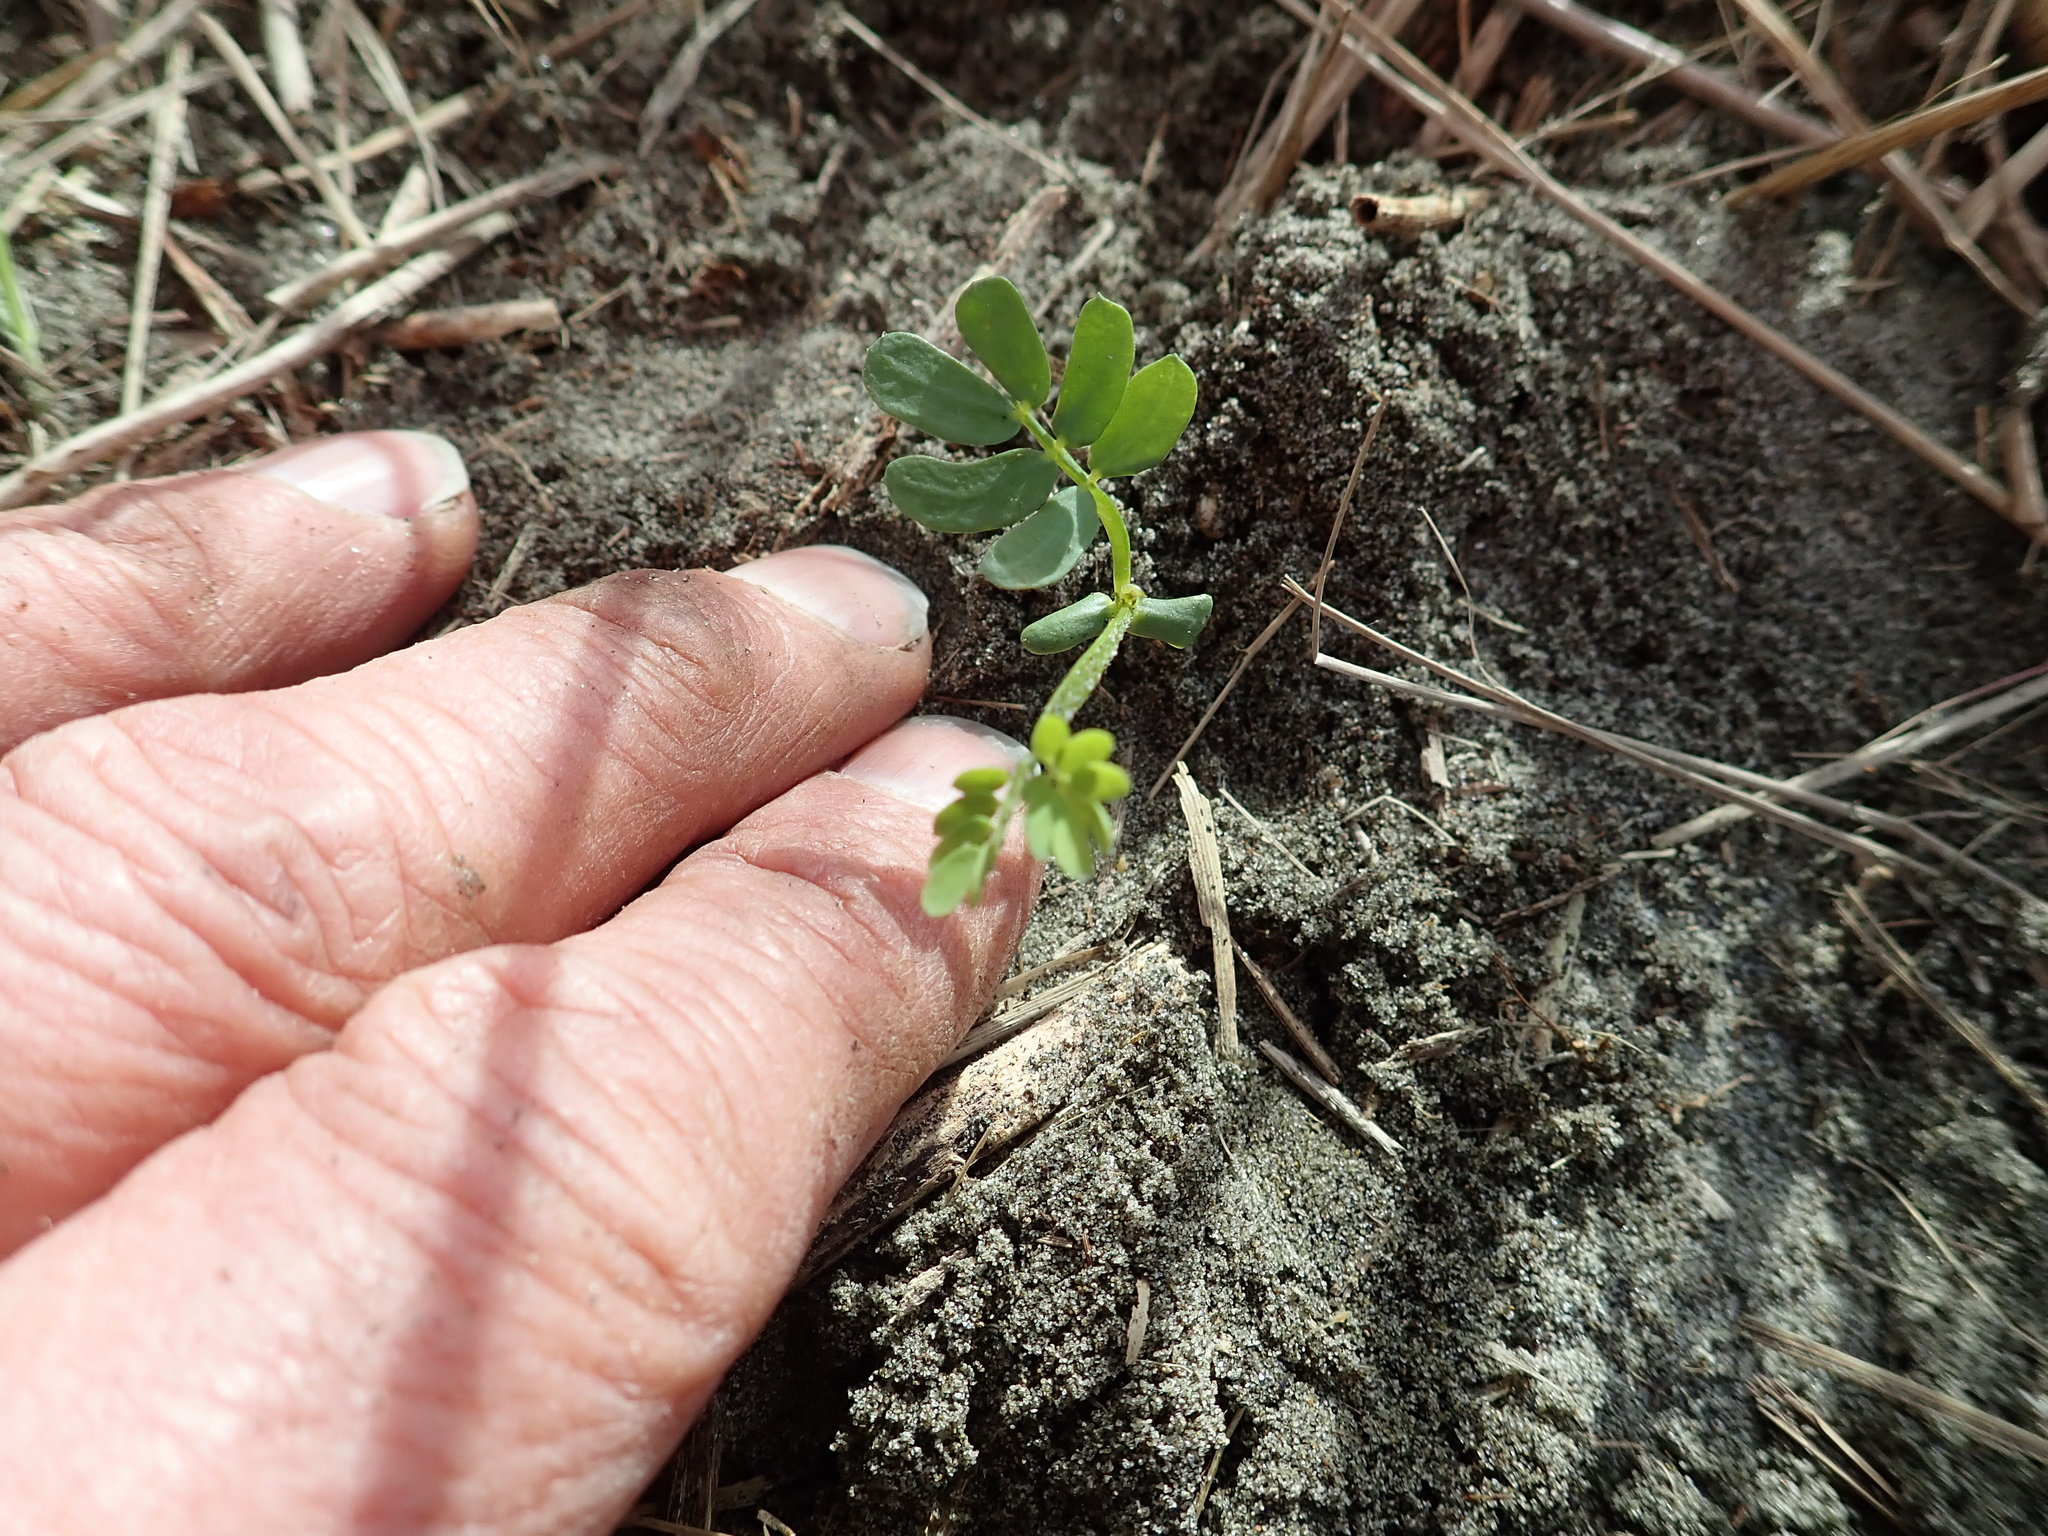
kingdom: Plantae
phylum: Tracheophyta
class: Magnoliopsida
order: Fabales
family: Fabaceae
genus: Acacia
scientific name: Acacia longifolia
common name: Sydney golden wattle
